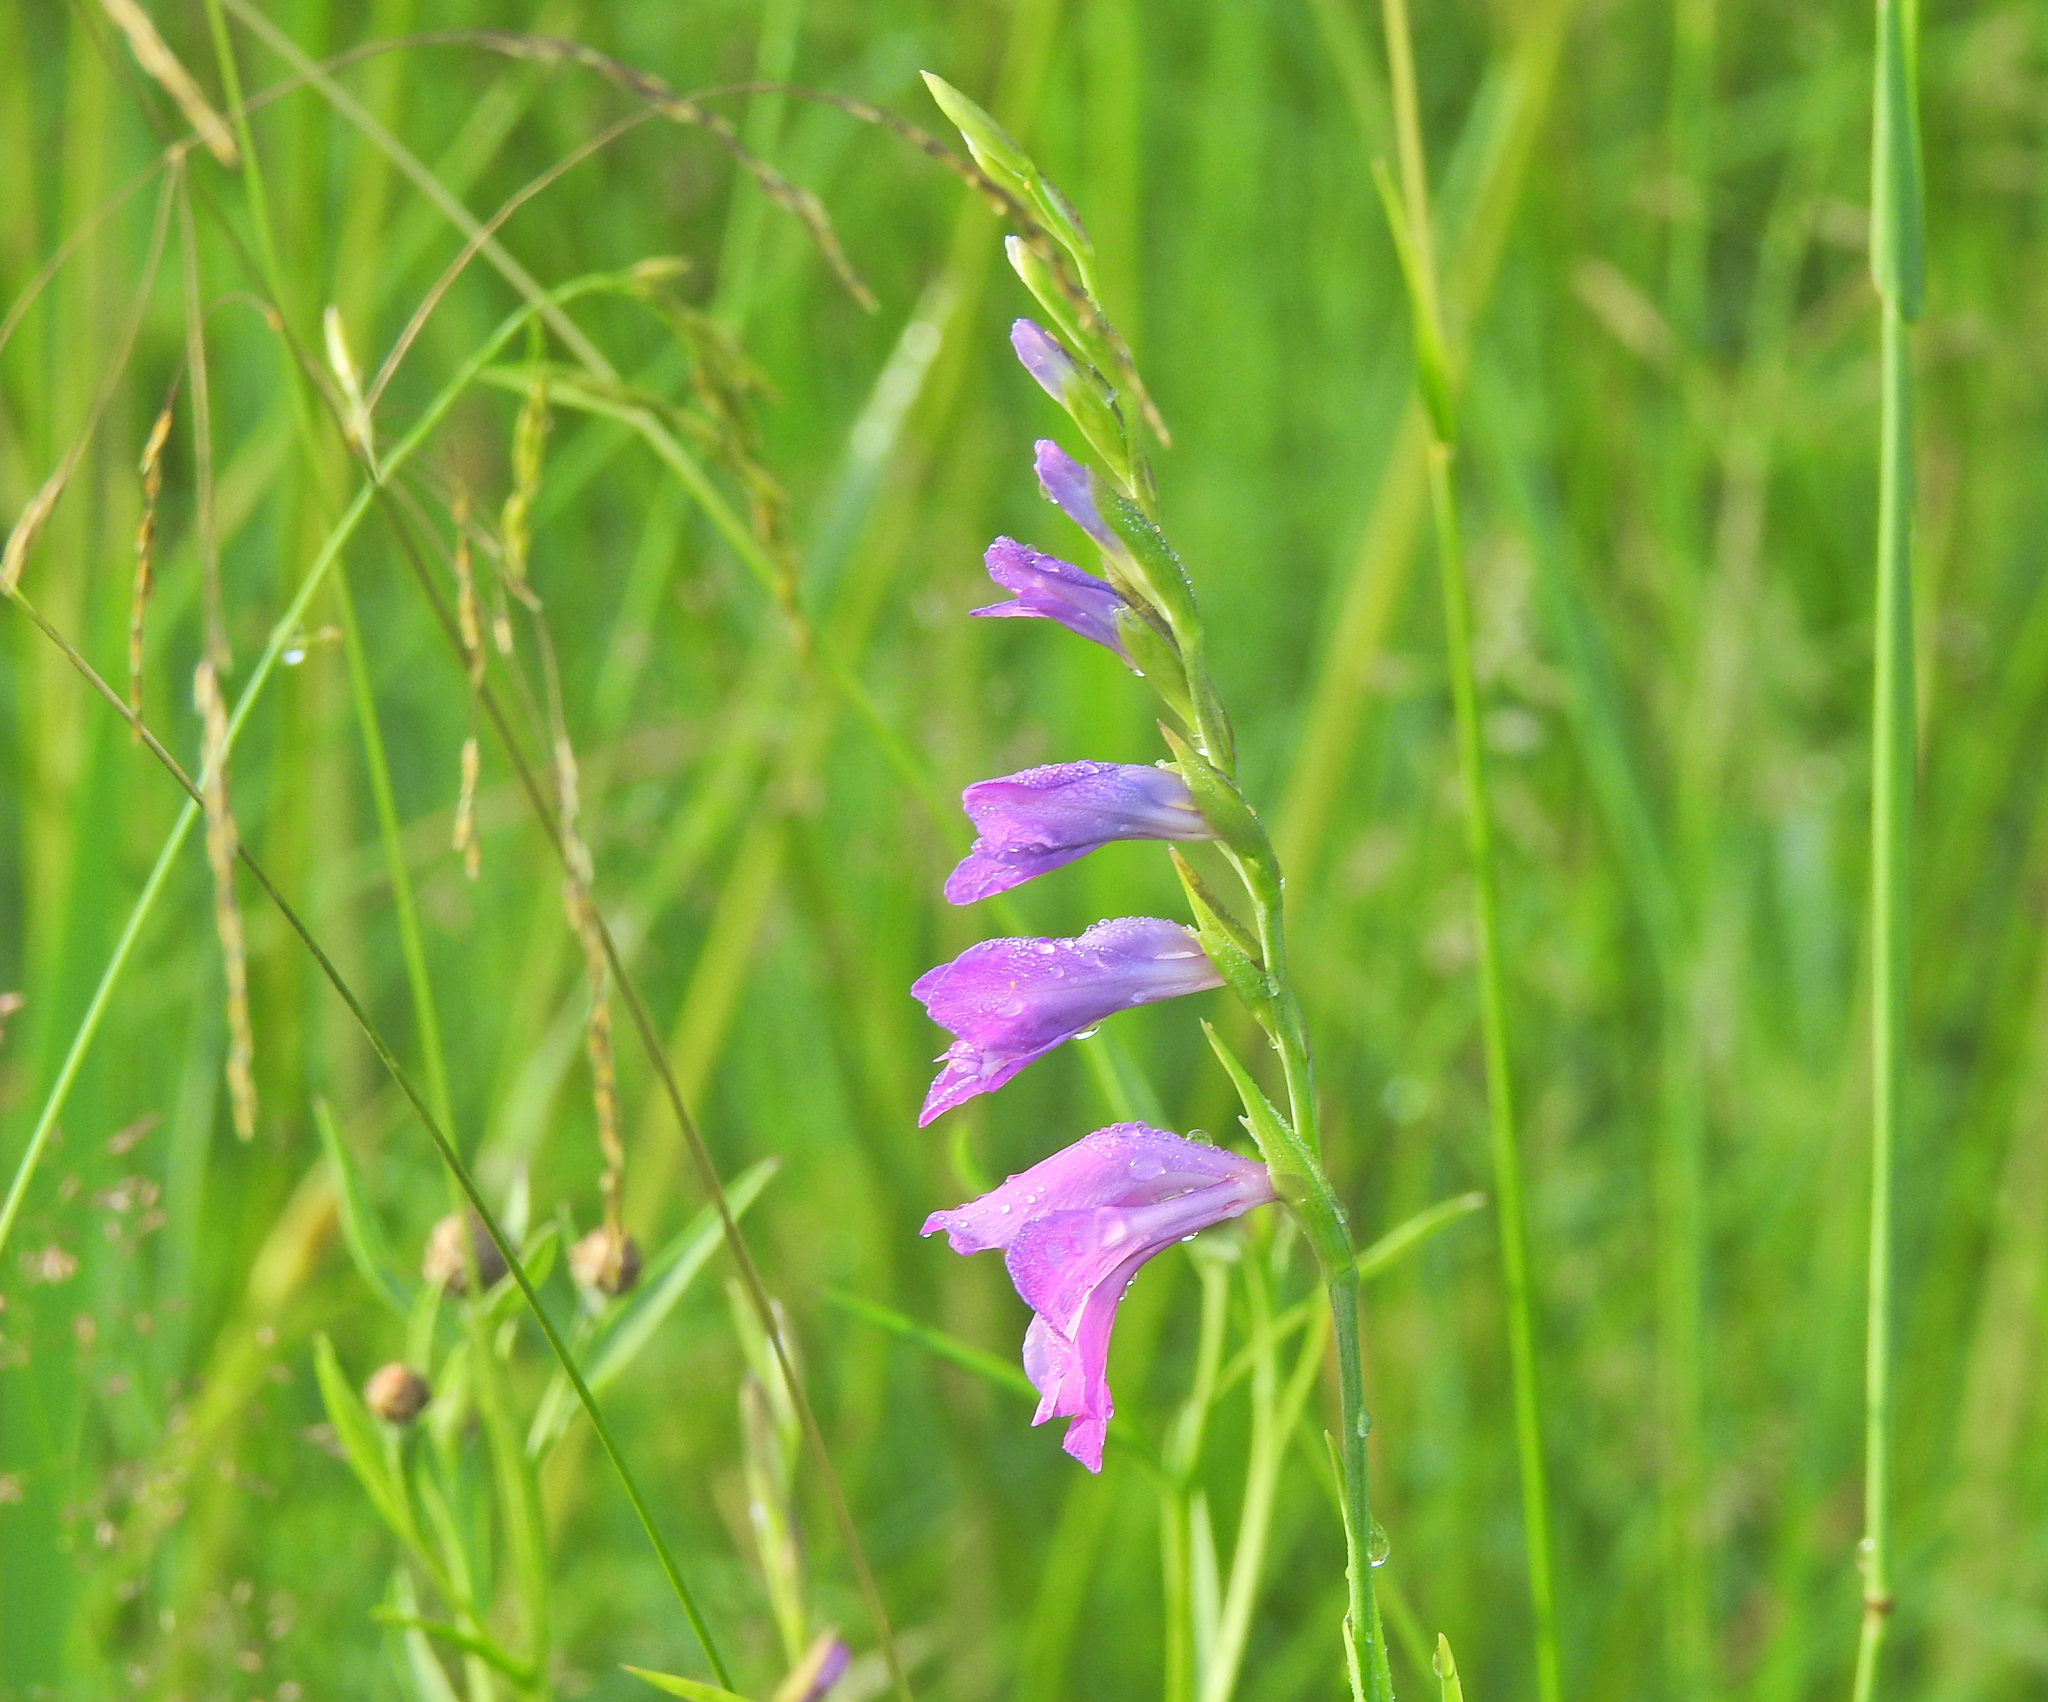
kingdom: Plantae
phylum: Tracheophyta
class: Liliopsida
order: Asparagales
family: Iridaceae
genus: Gladiolus
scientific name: Gladiolus imbricatus
